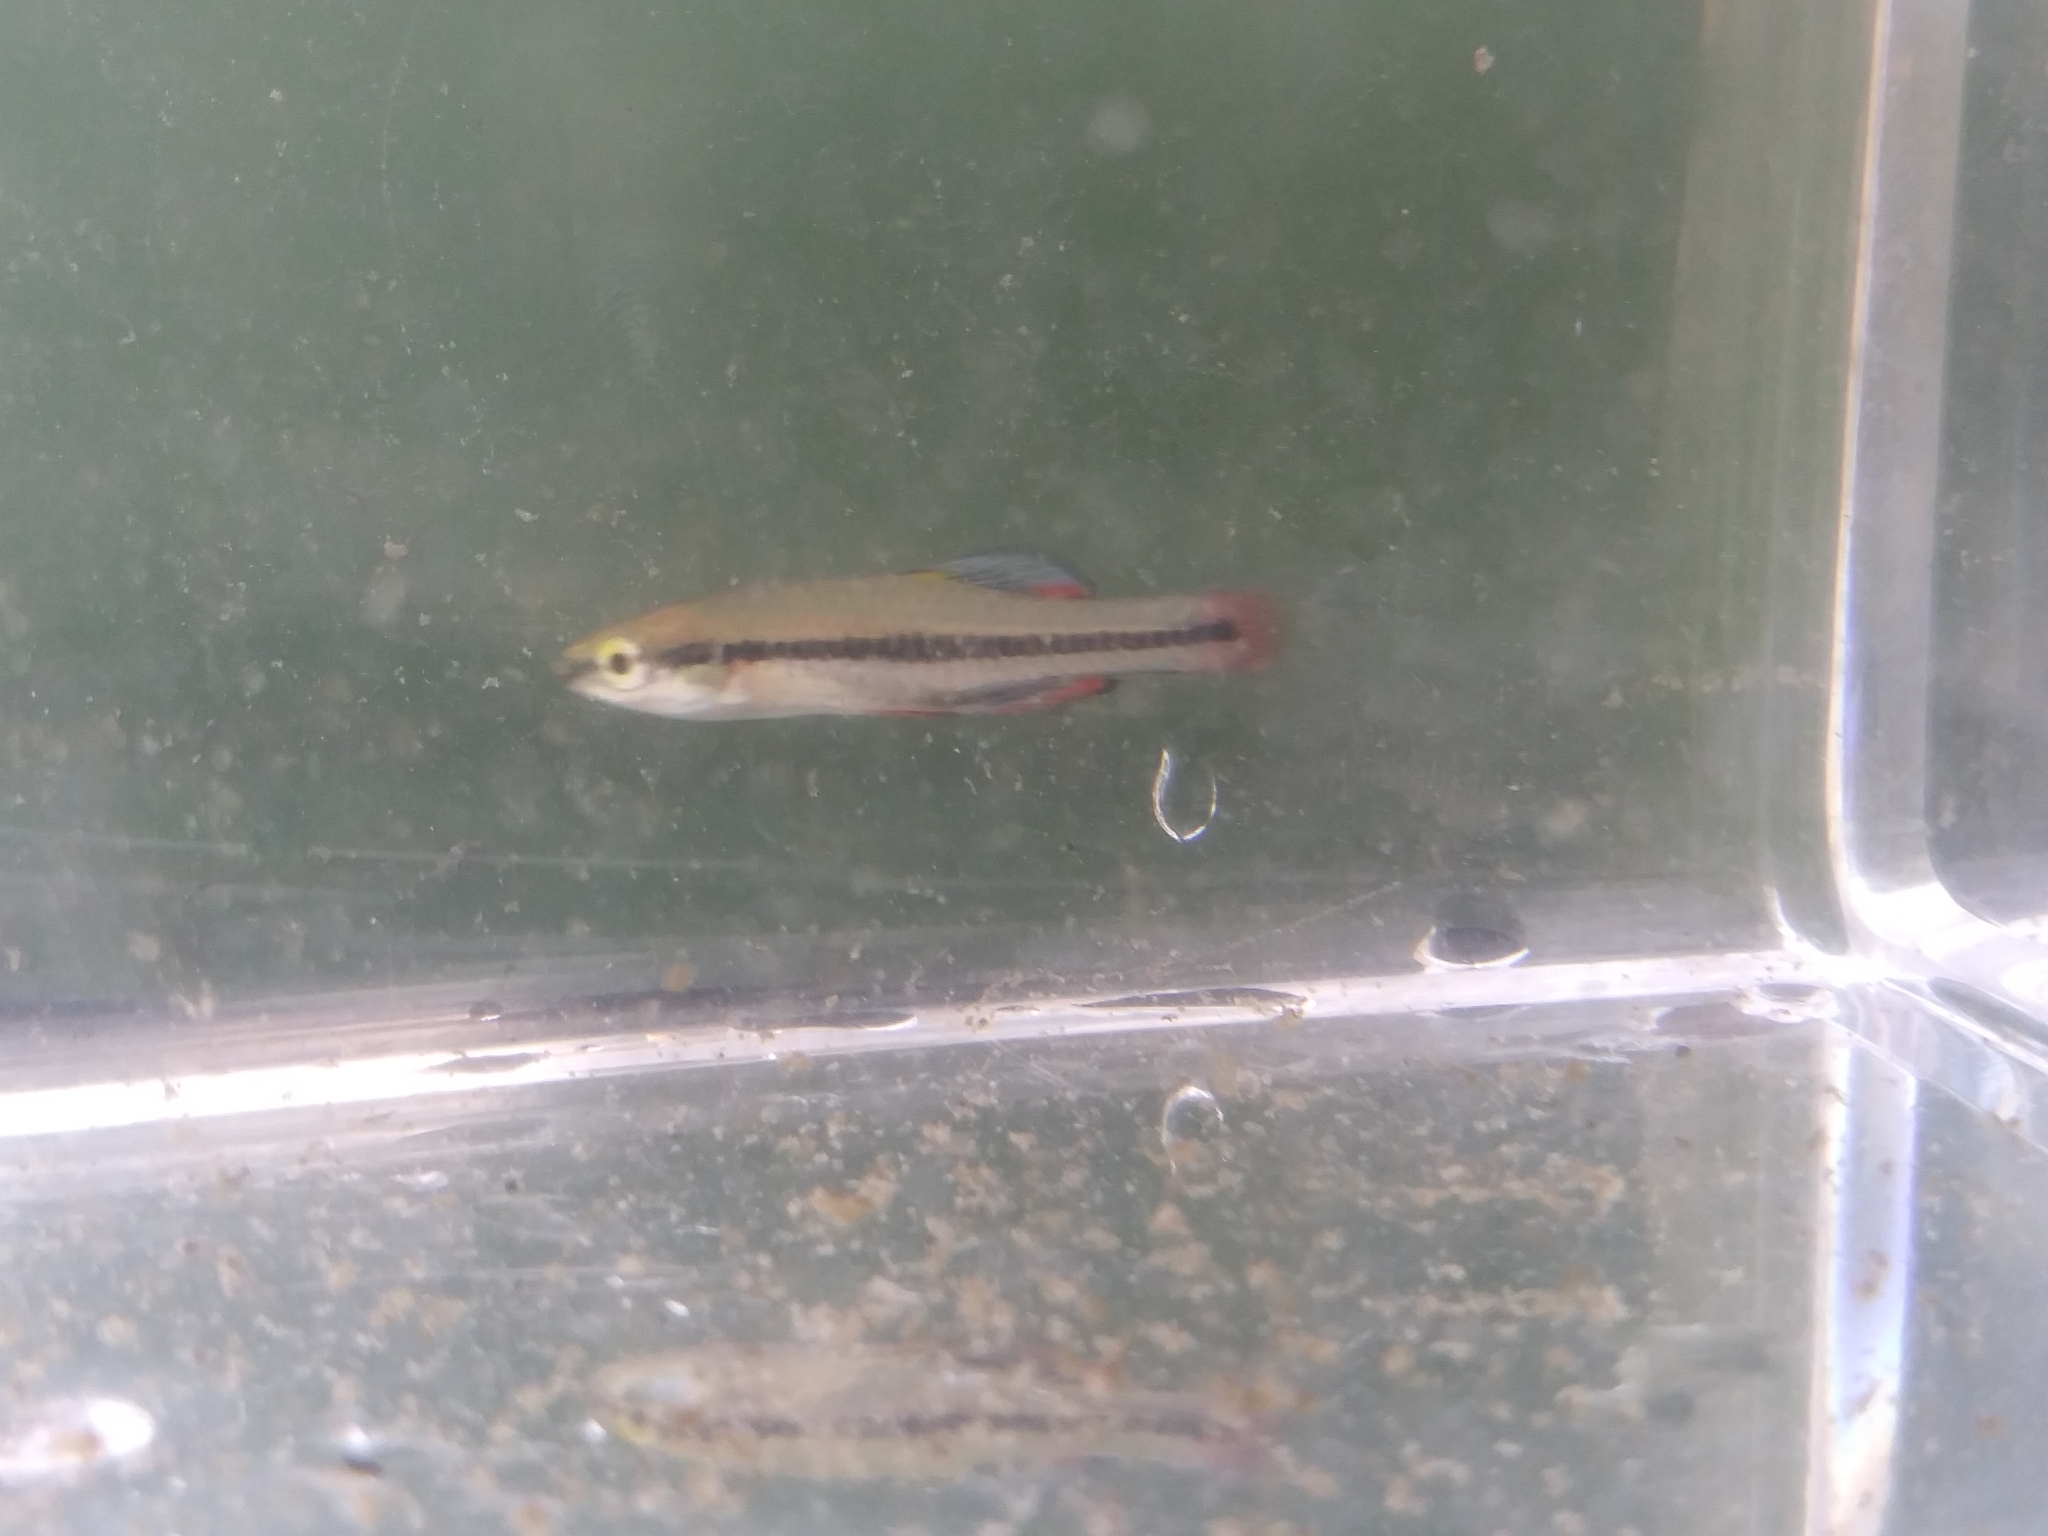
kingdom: Animalia
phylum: Chordata
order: Cyprinodontiformes
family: Fundulidae
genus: Lucania
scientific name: Lucania goodei
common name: Bluefin killifish
